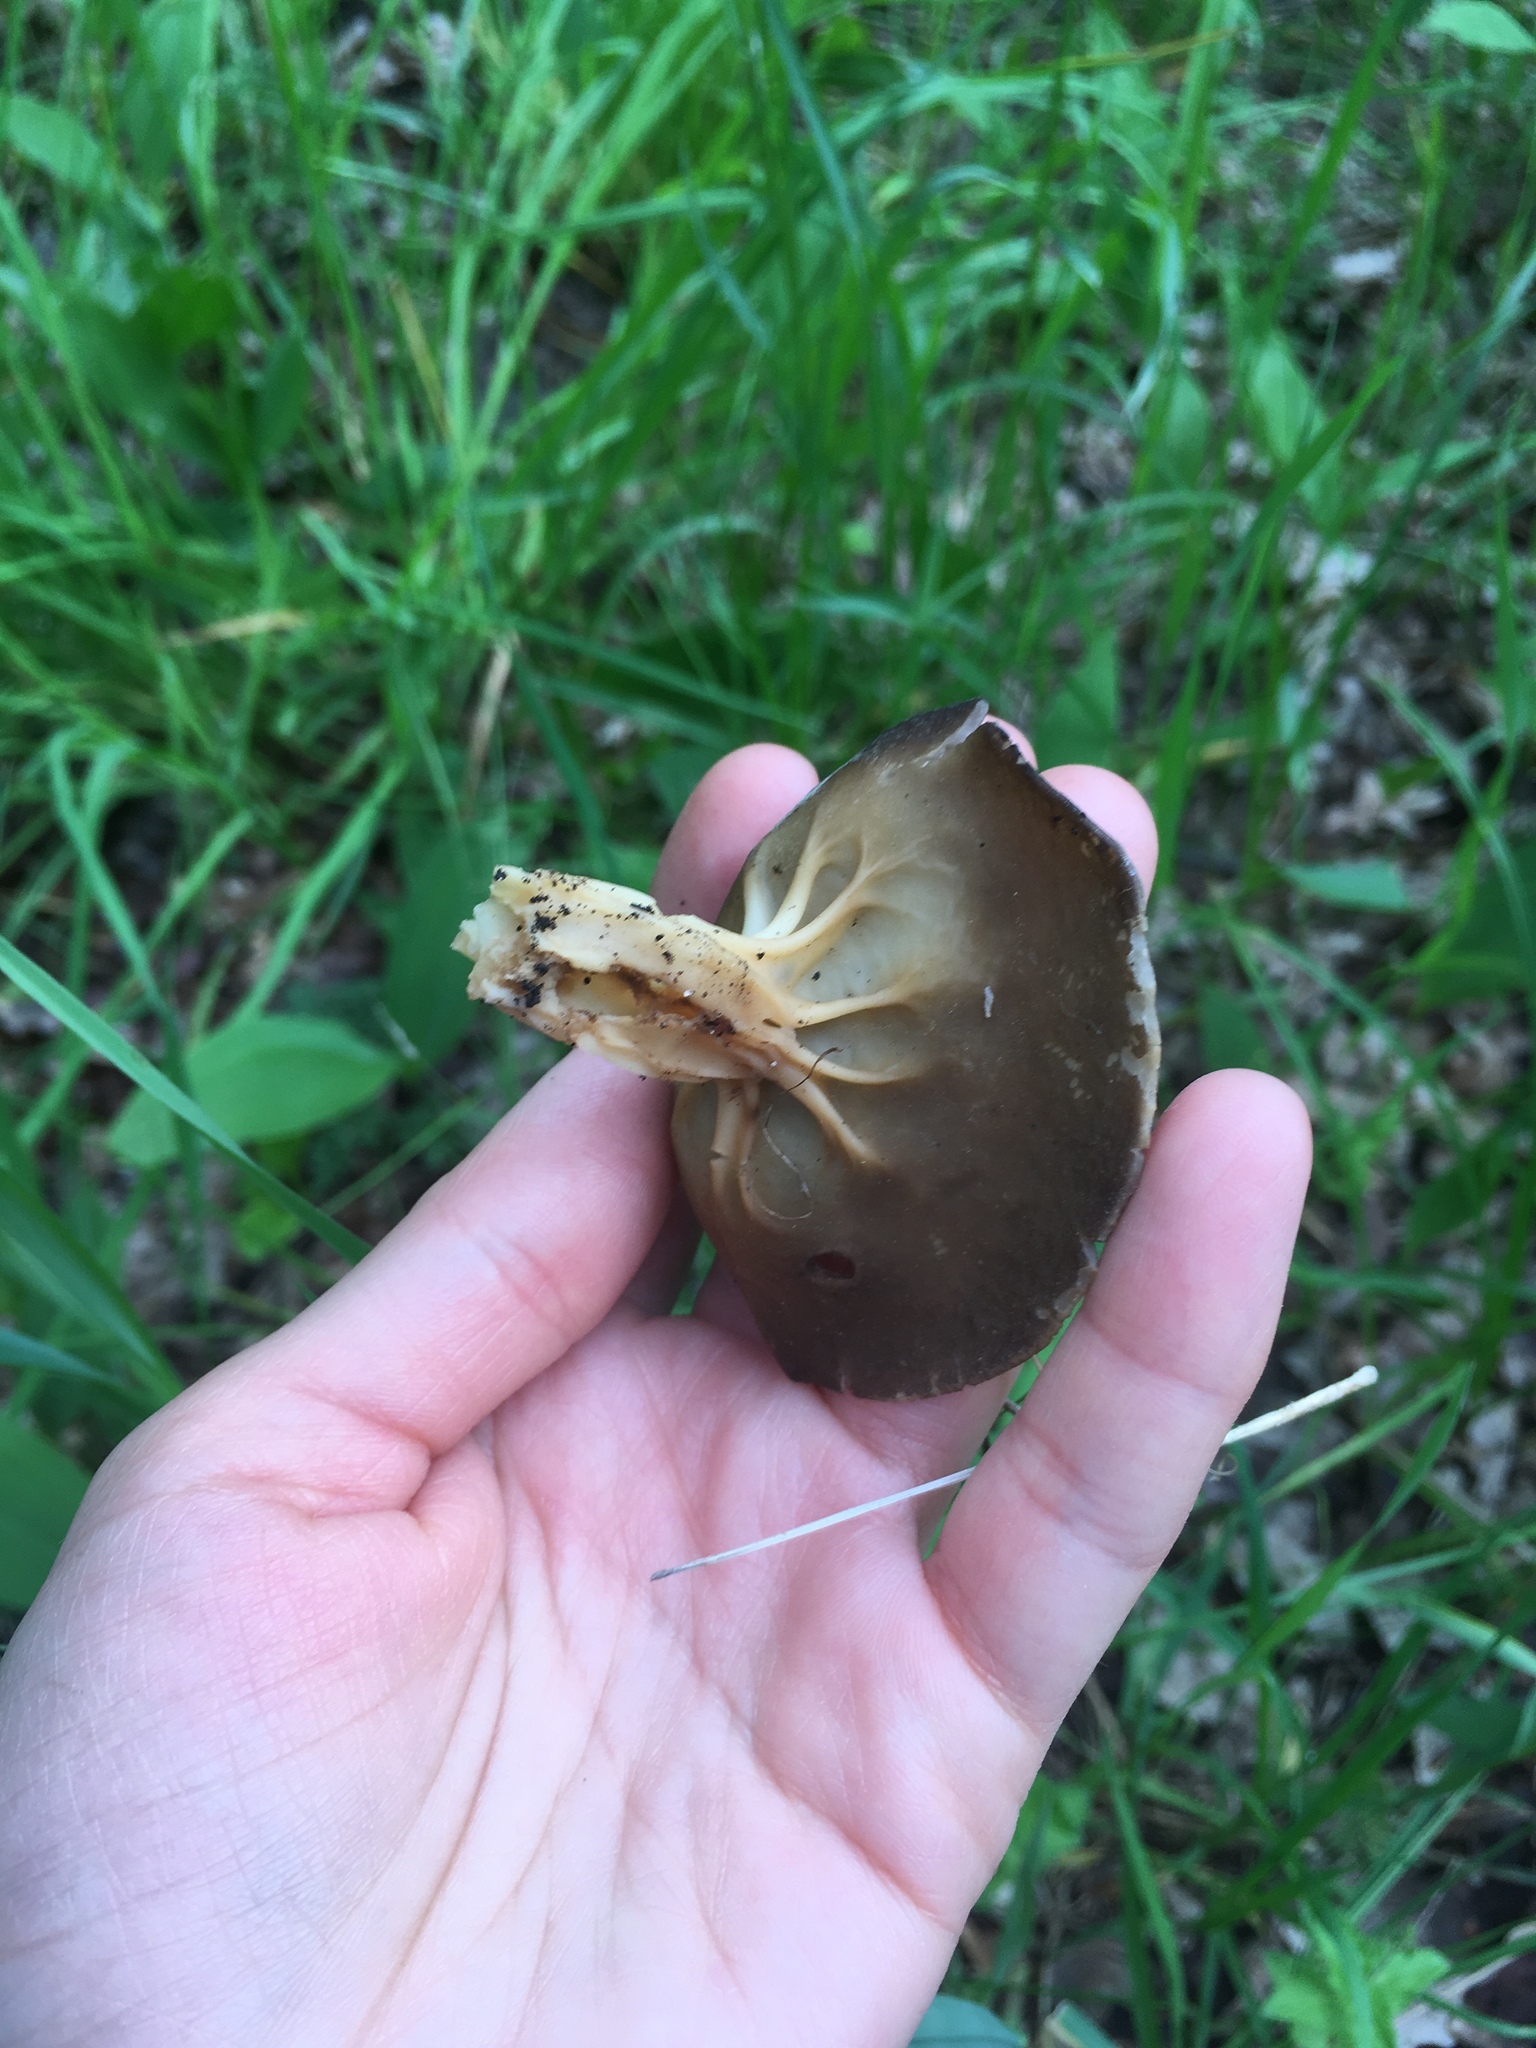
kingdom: Fungi
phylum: Ascomycota
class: Pezizomycetes
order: Pezizales
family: Helvellaceae
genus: Helvella
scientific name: Helvella acetabulum
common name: Vinegar cup
